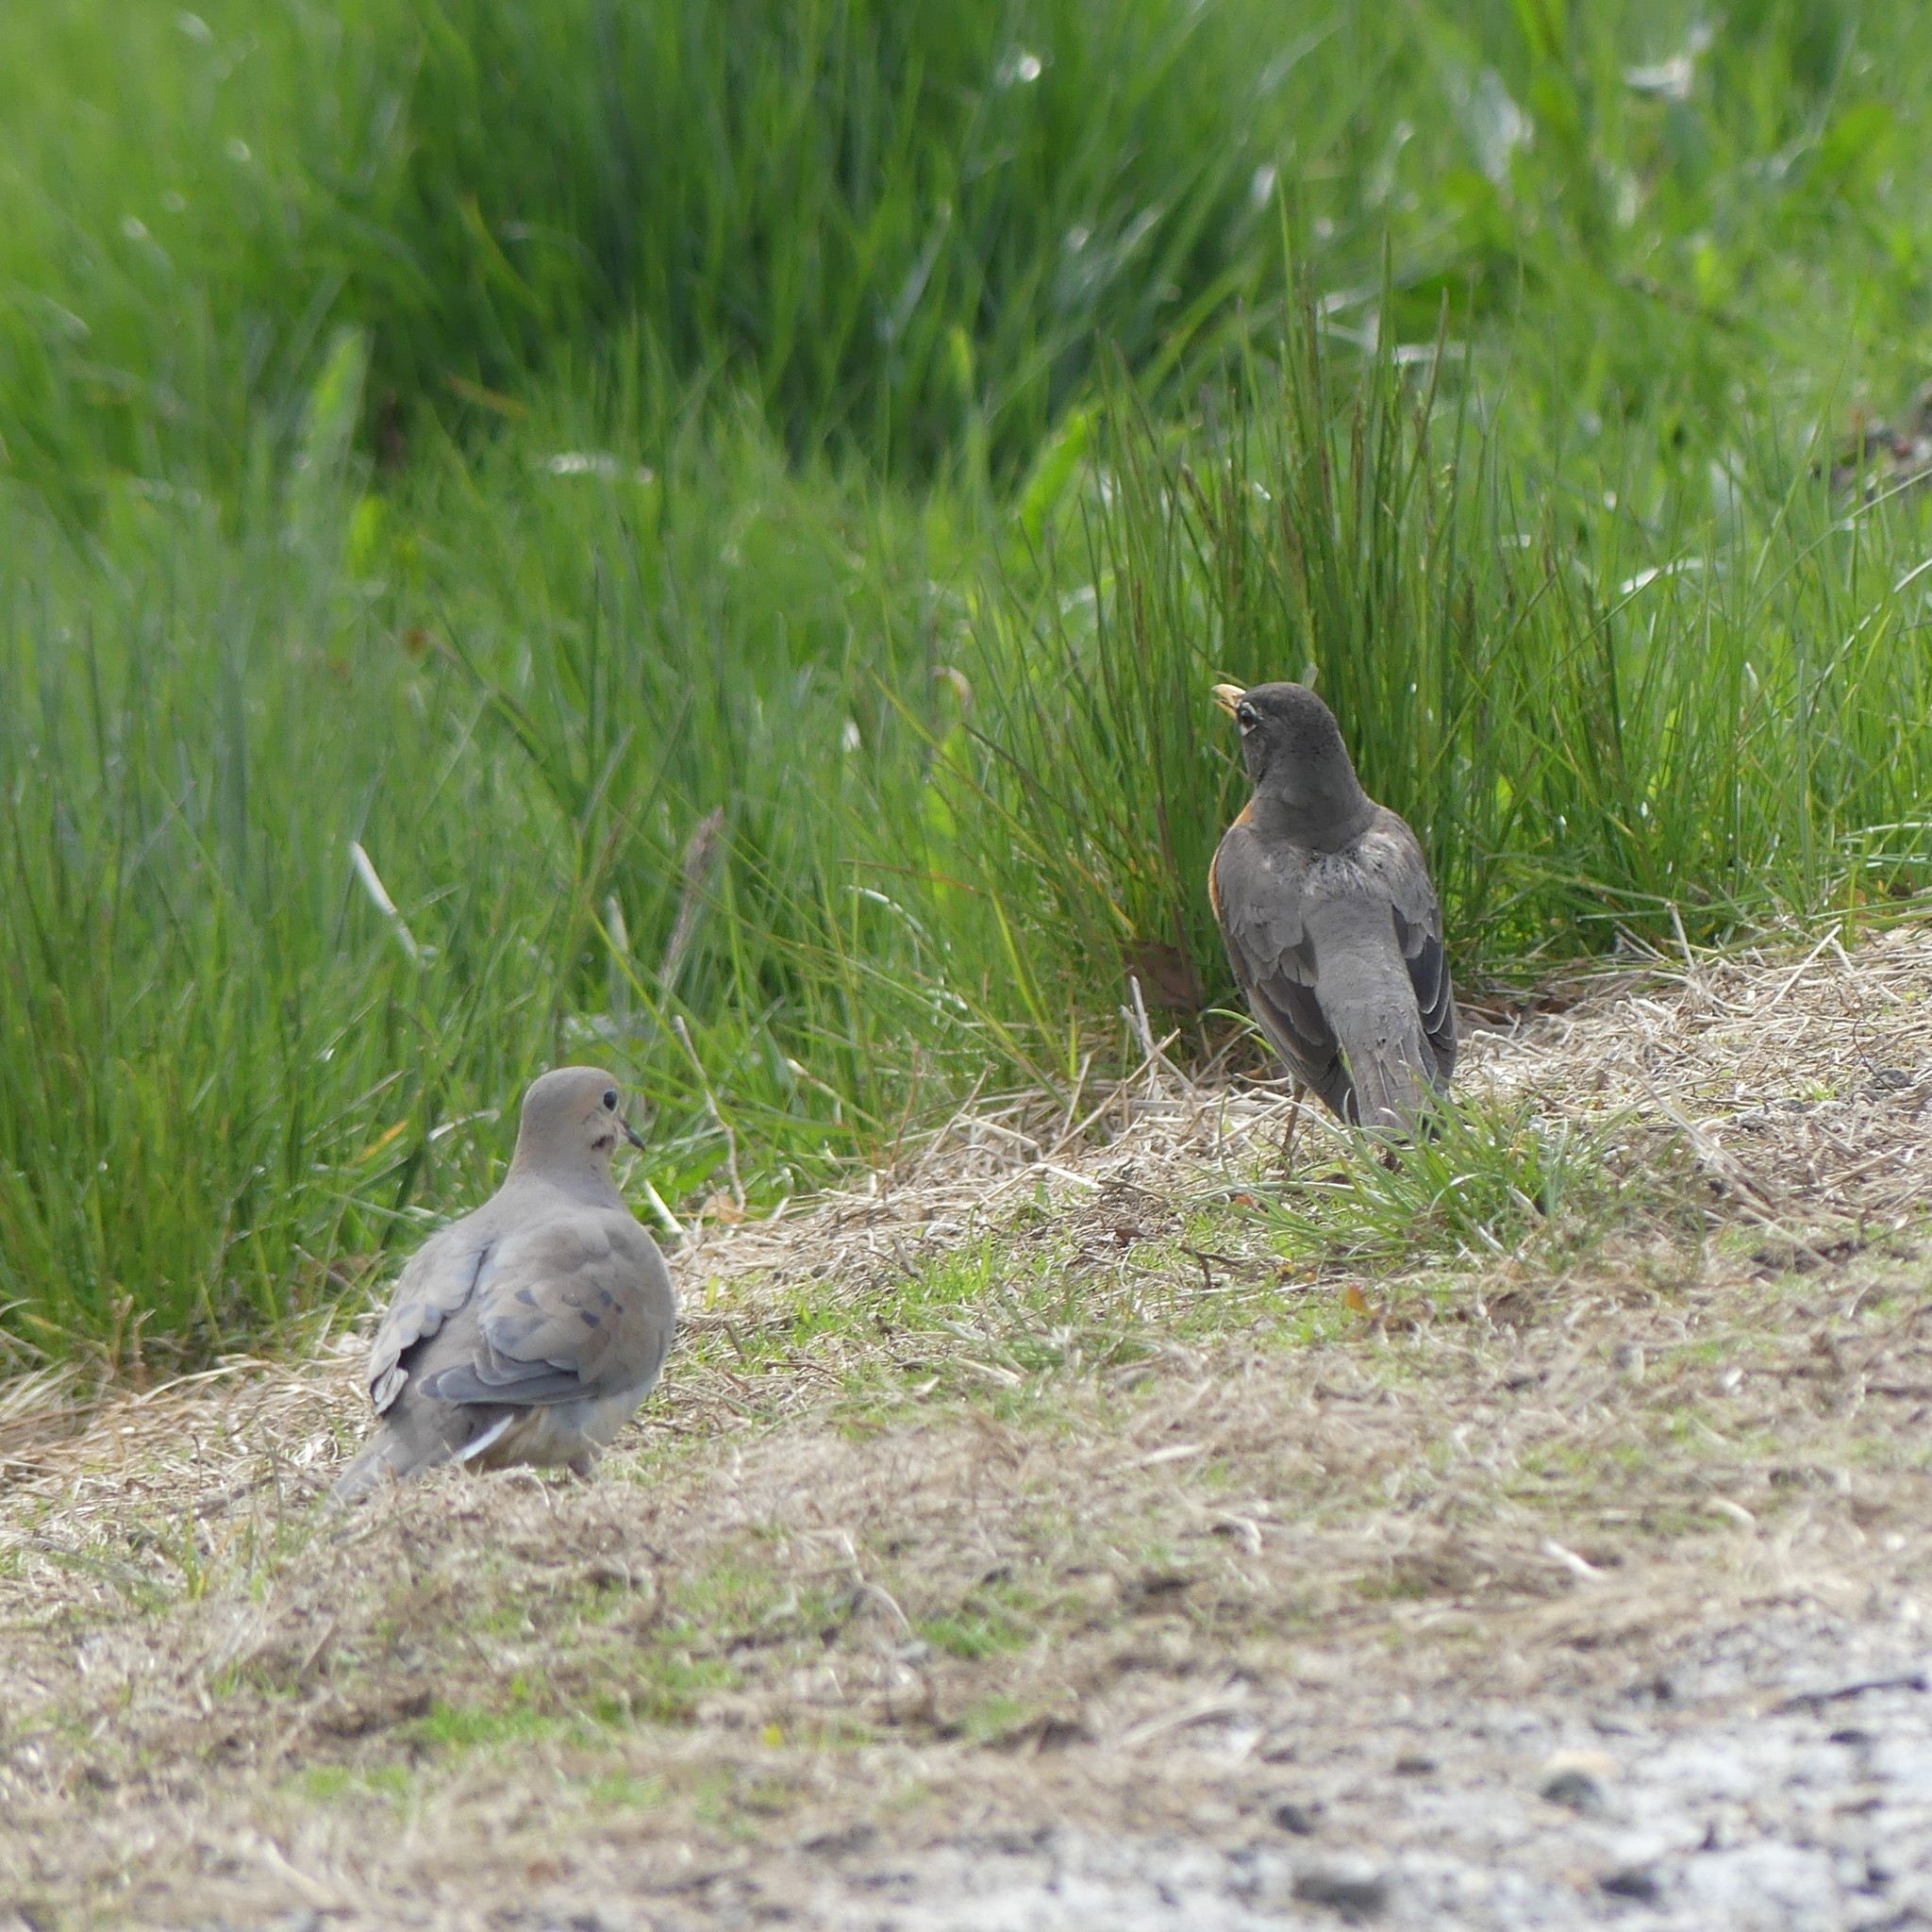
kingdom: Animalia
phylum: Chordata
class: Aves
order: Columbiformes
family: Columbidae
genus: Zenaida
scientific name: Zenaida macroura
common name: Mourning dove
